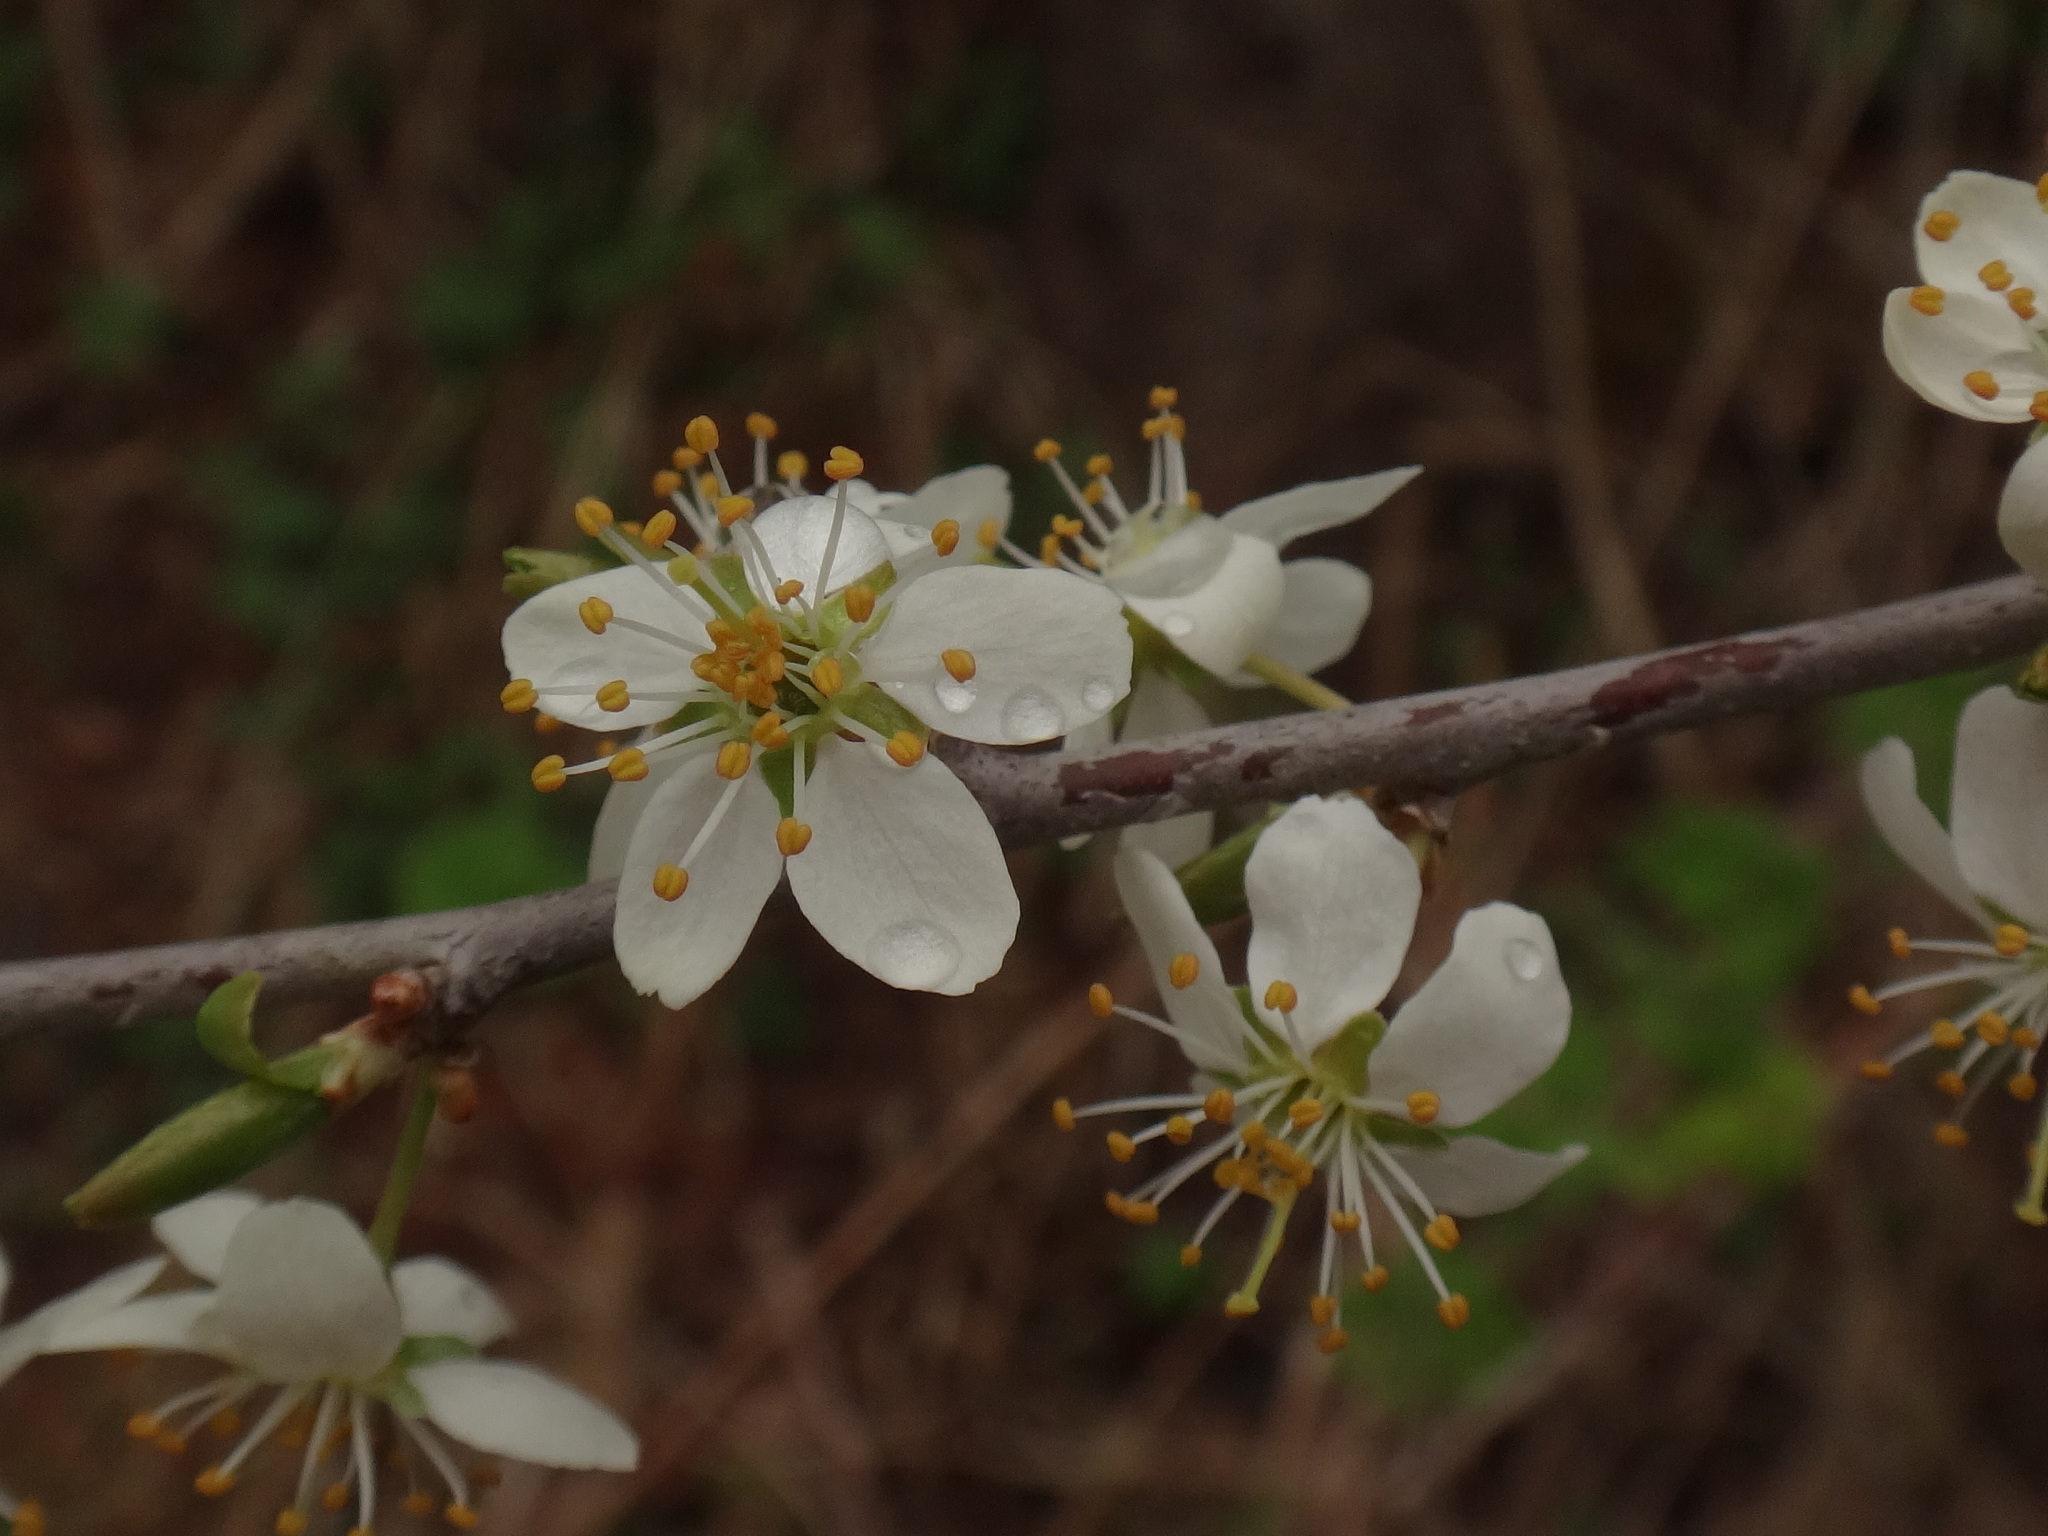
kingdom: Plantae
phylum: Tracheophyta
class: Magnoliopsida
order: Rosales
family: Rosaceae
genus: Prunus
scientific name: Prunus spinosa
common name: Blackthorn
